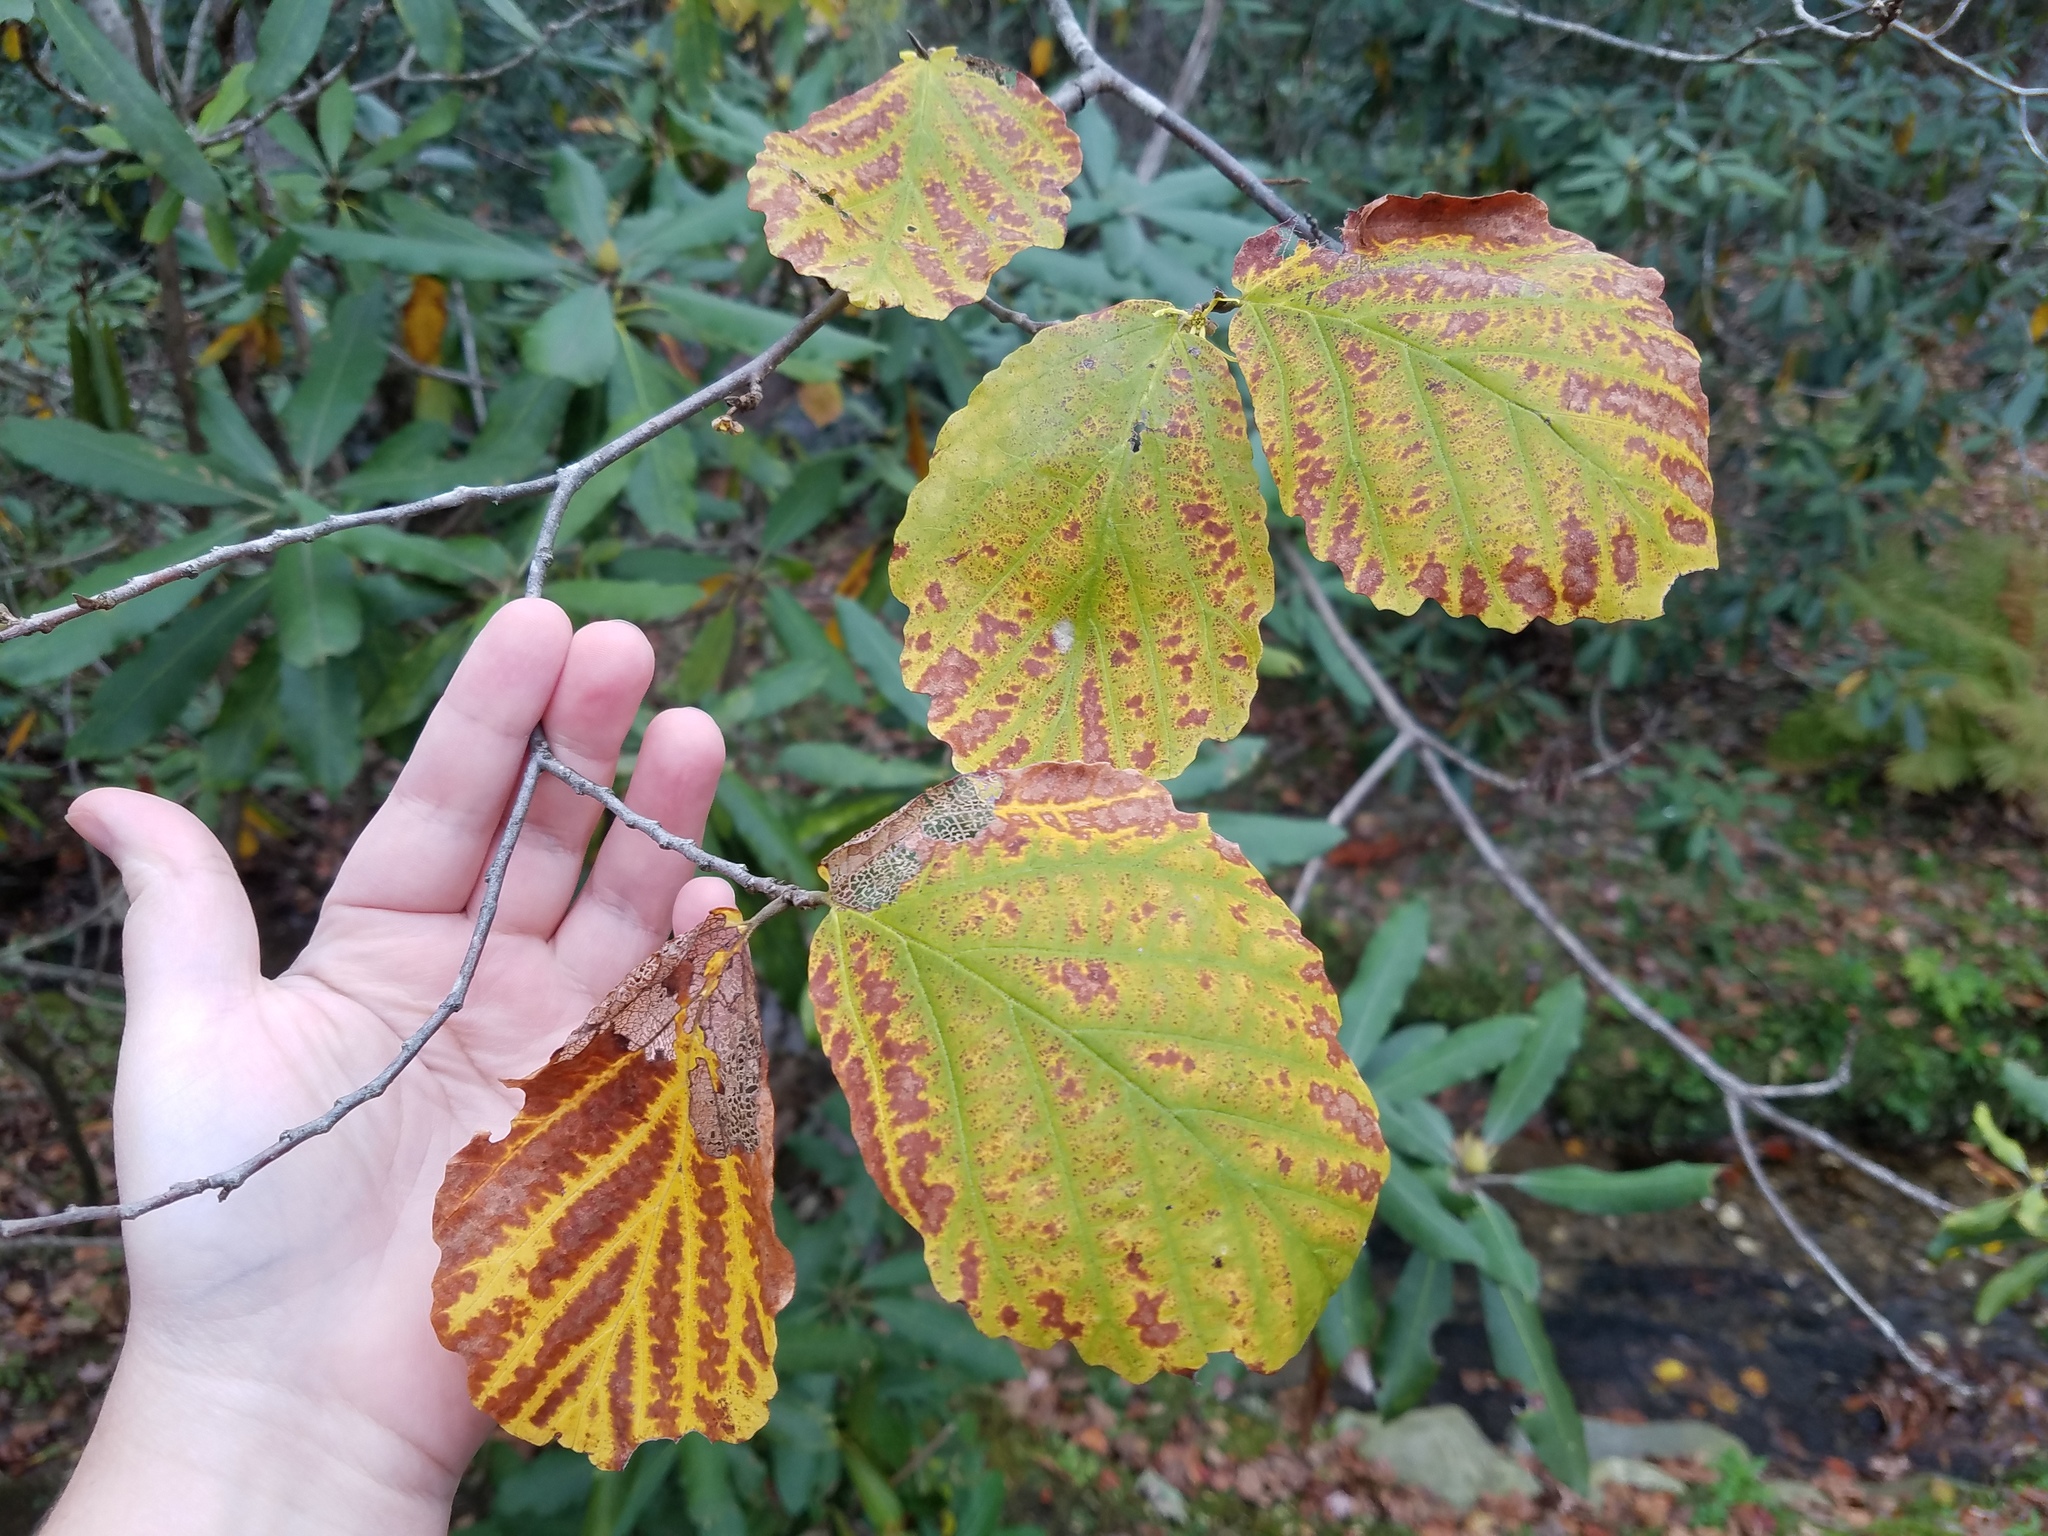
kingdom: Plantae
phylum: Tracheophyta
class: Magnoliopsida
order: Saxifragales
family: Hamamelidaceae
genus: Hamamelis
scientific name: Hamamelis virginiana
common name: Witch-hazel
